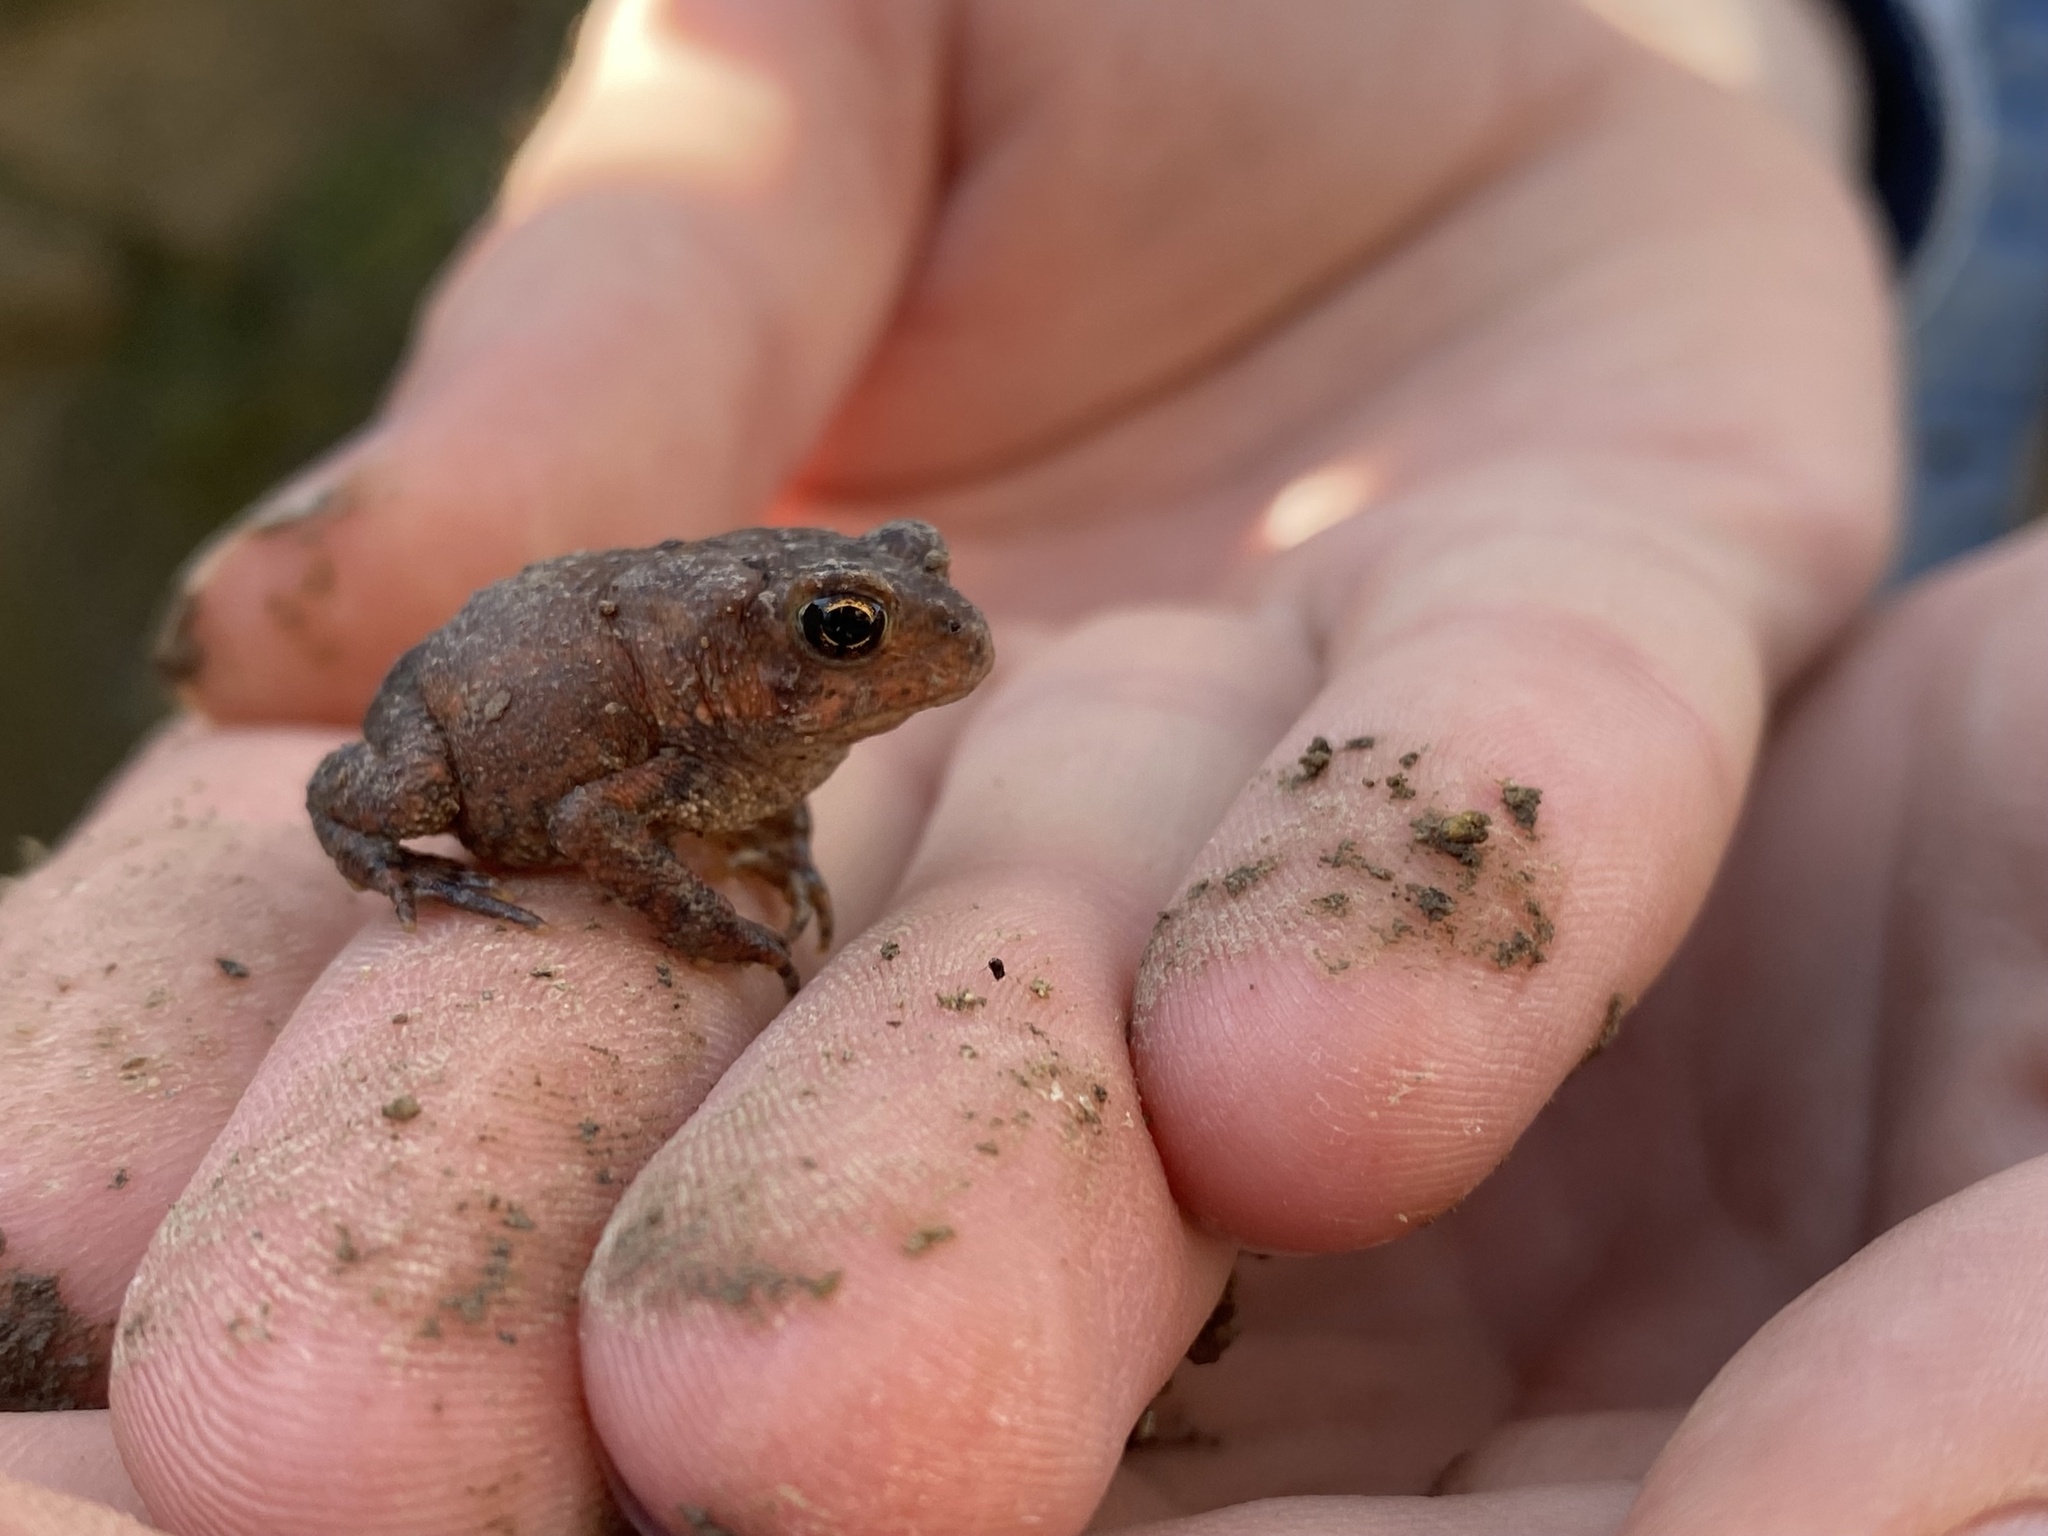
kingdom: Animalia
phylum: Chordata
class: Amphibia
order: Anura
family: Bufonidae
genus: Anaxyrus
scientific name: Anaxyrus americanus
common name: American toad
